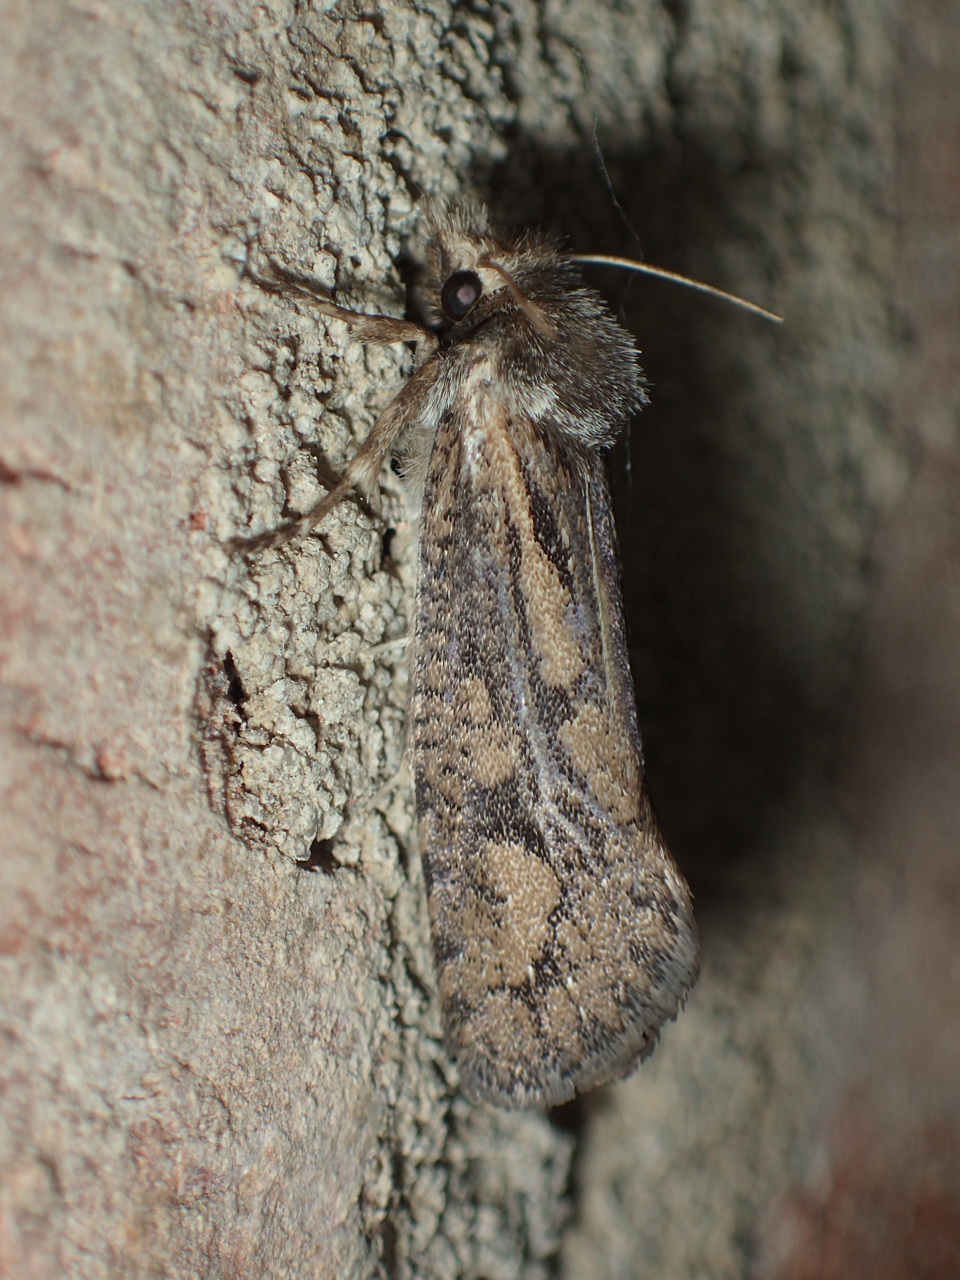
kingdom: Animalia
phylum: Arthropoda
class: Insecta
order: Lepidoptera
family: Tineidae
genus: Acrolophus
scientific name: Acrolophus popeanella
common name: Clemens' grass tubeworm moth
